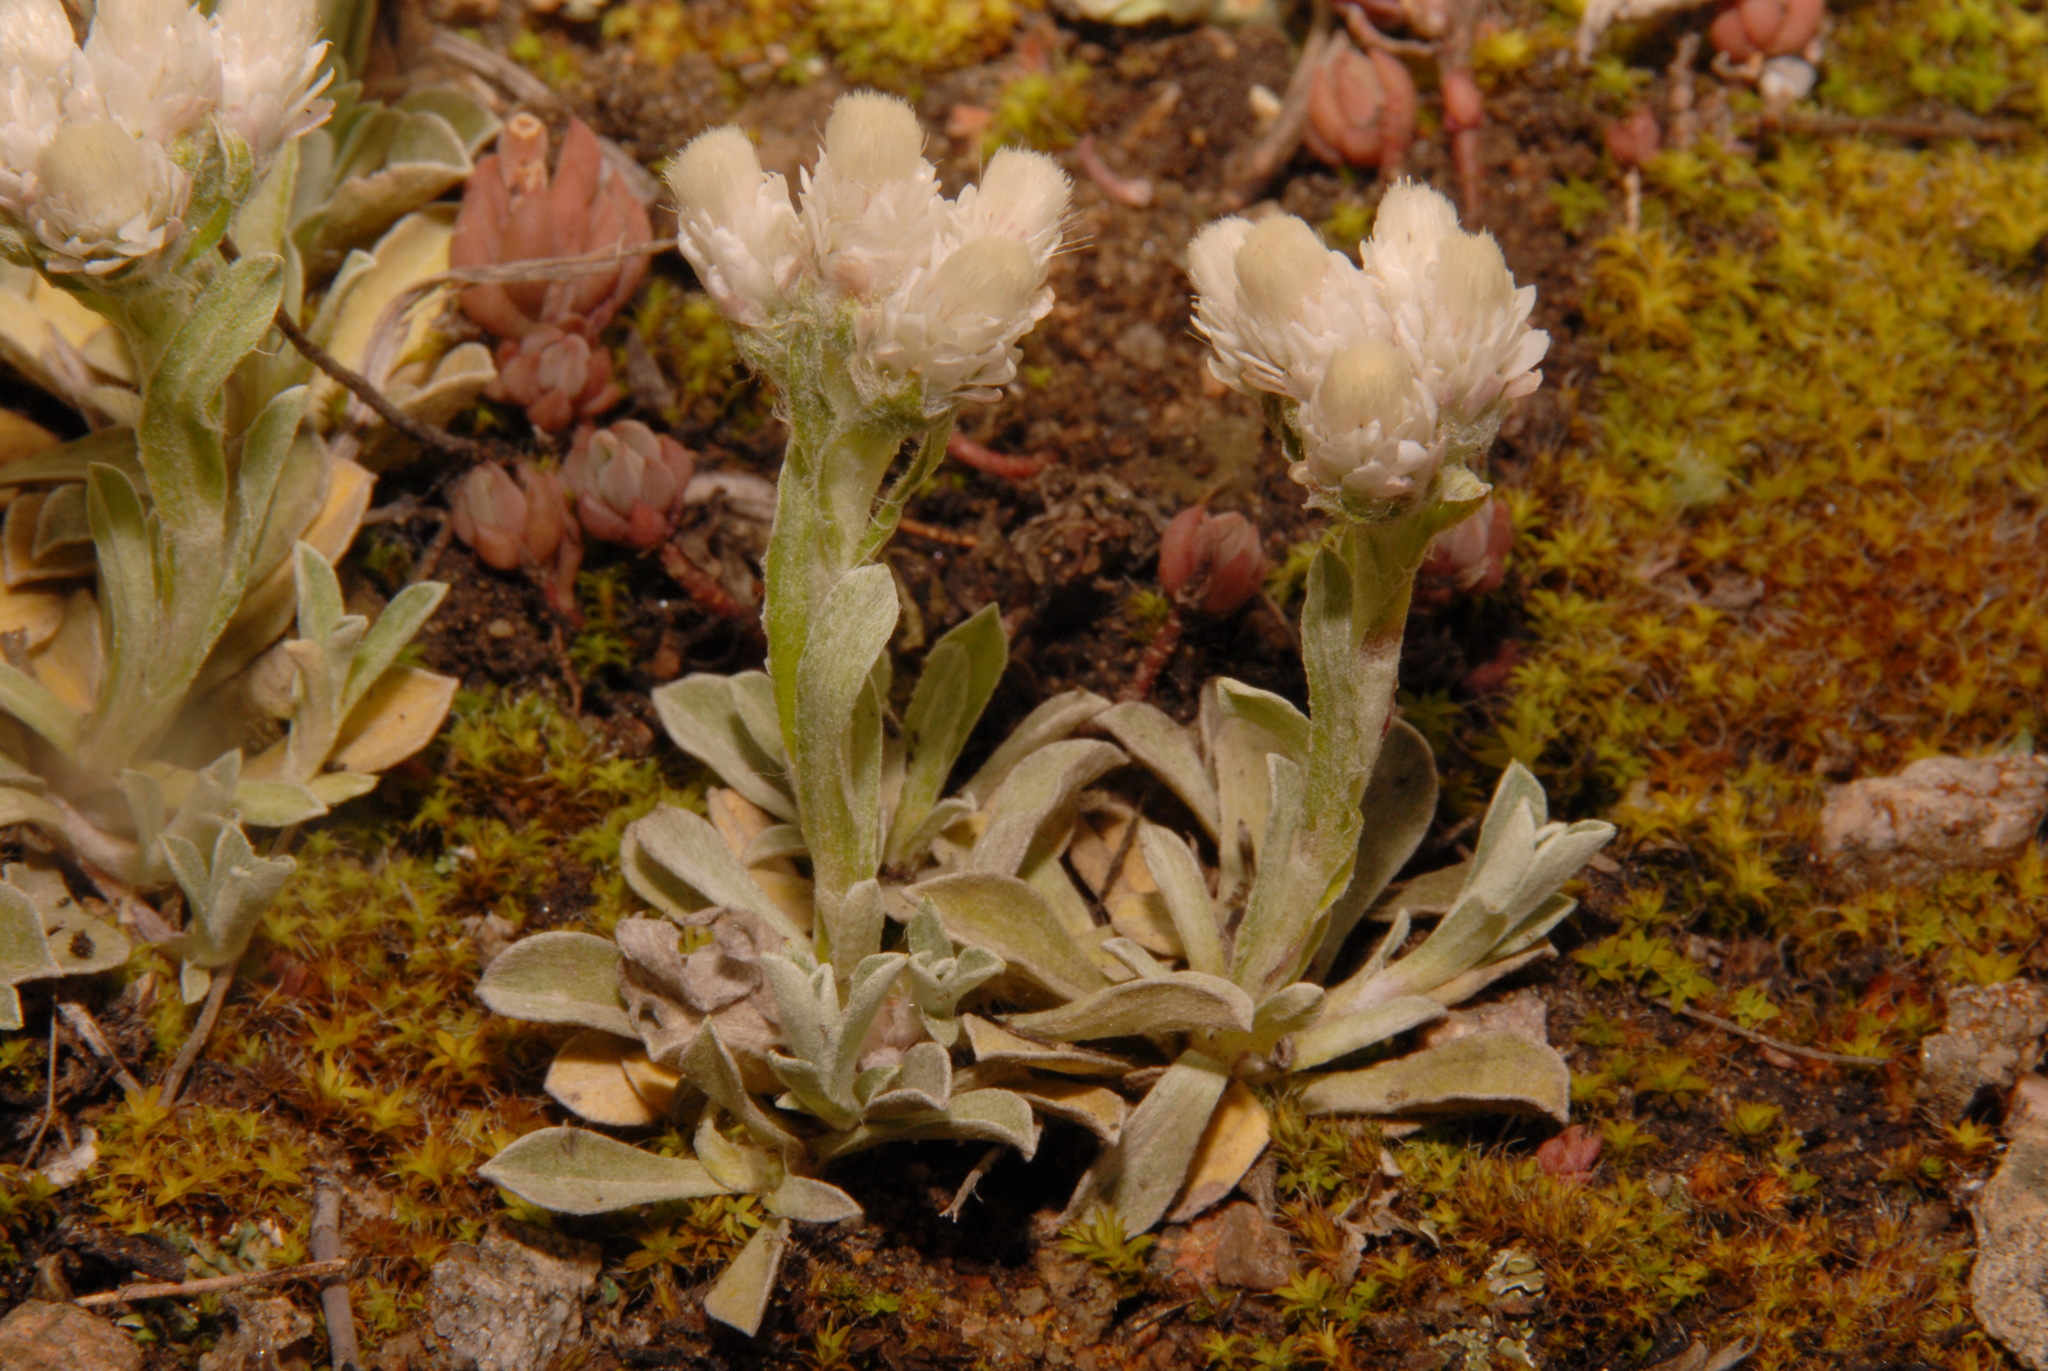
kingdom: Plantae
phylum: Tracheophyta
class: Magnoliopsida
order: Asterales
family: Asteraceae
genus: Antennaria
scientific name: Antennaria parvifolia
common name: Nuttall's pussytoes
